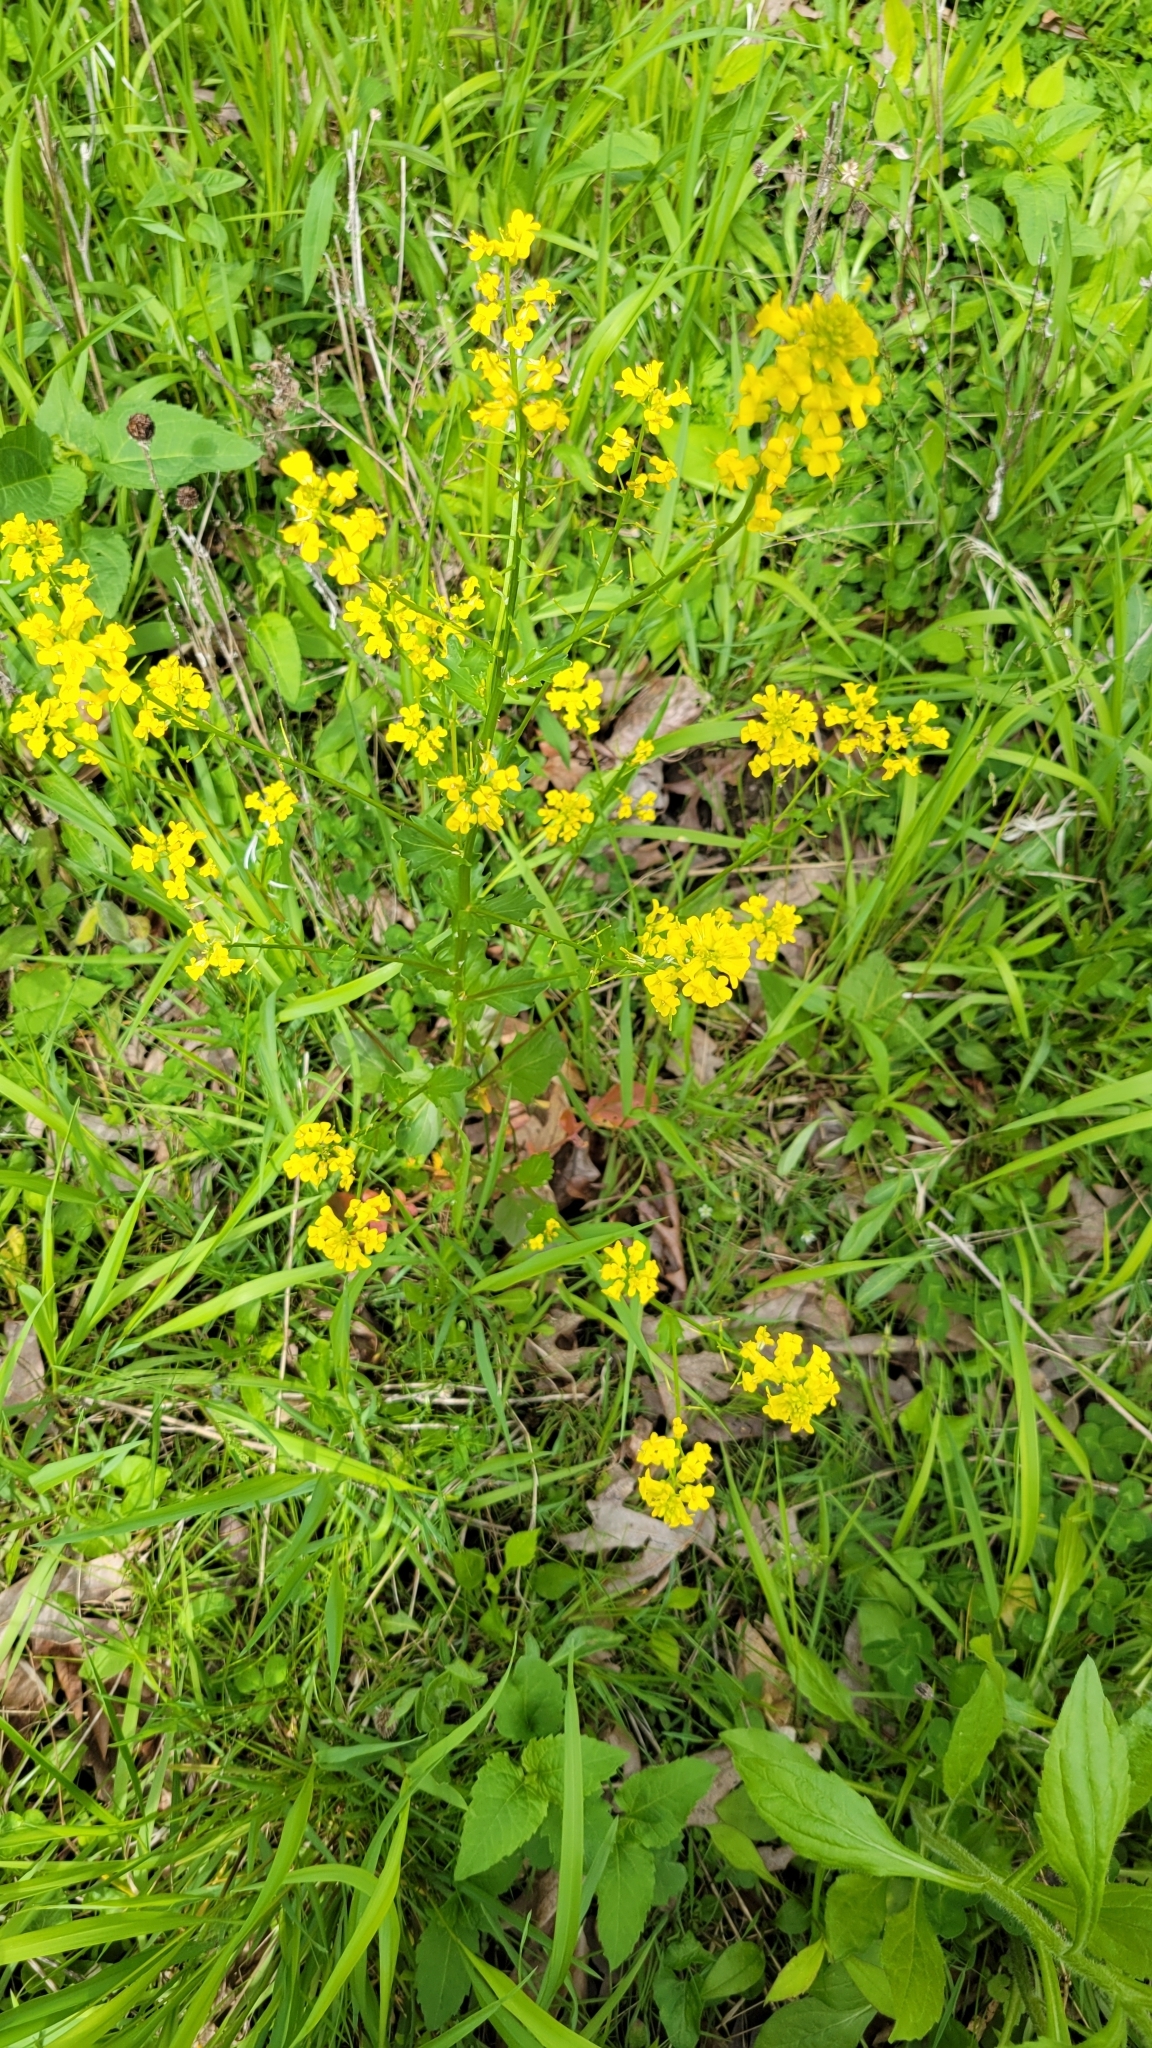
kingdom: Plantae
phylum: Tracheophyta
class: Magnoliopsida
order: Brassicales
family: Brassicaceae
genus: Barbarea
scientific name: Barbarea vulgaris
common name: Cressy-greens
